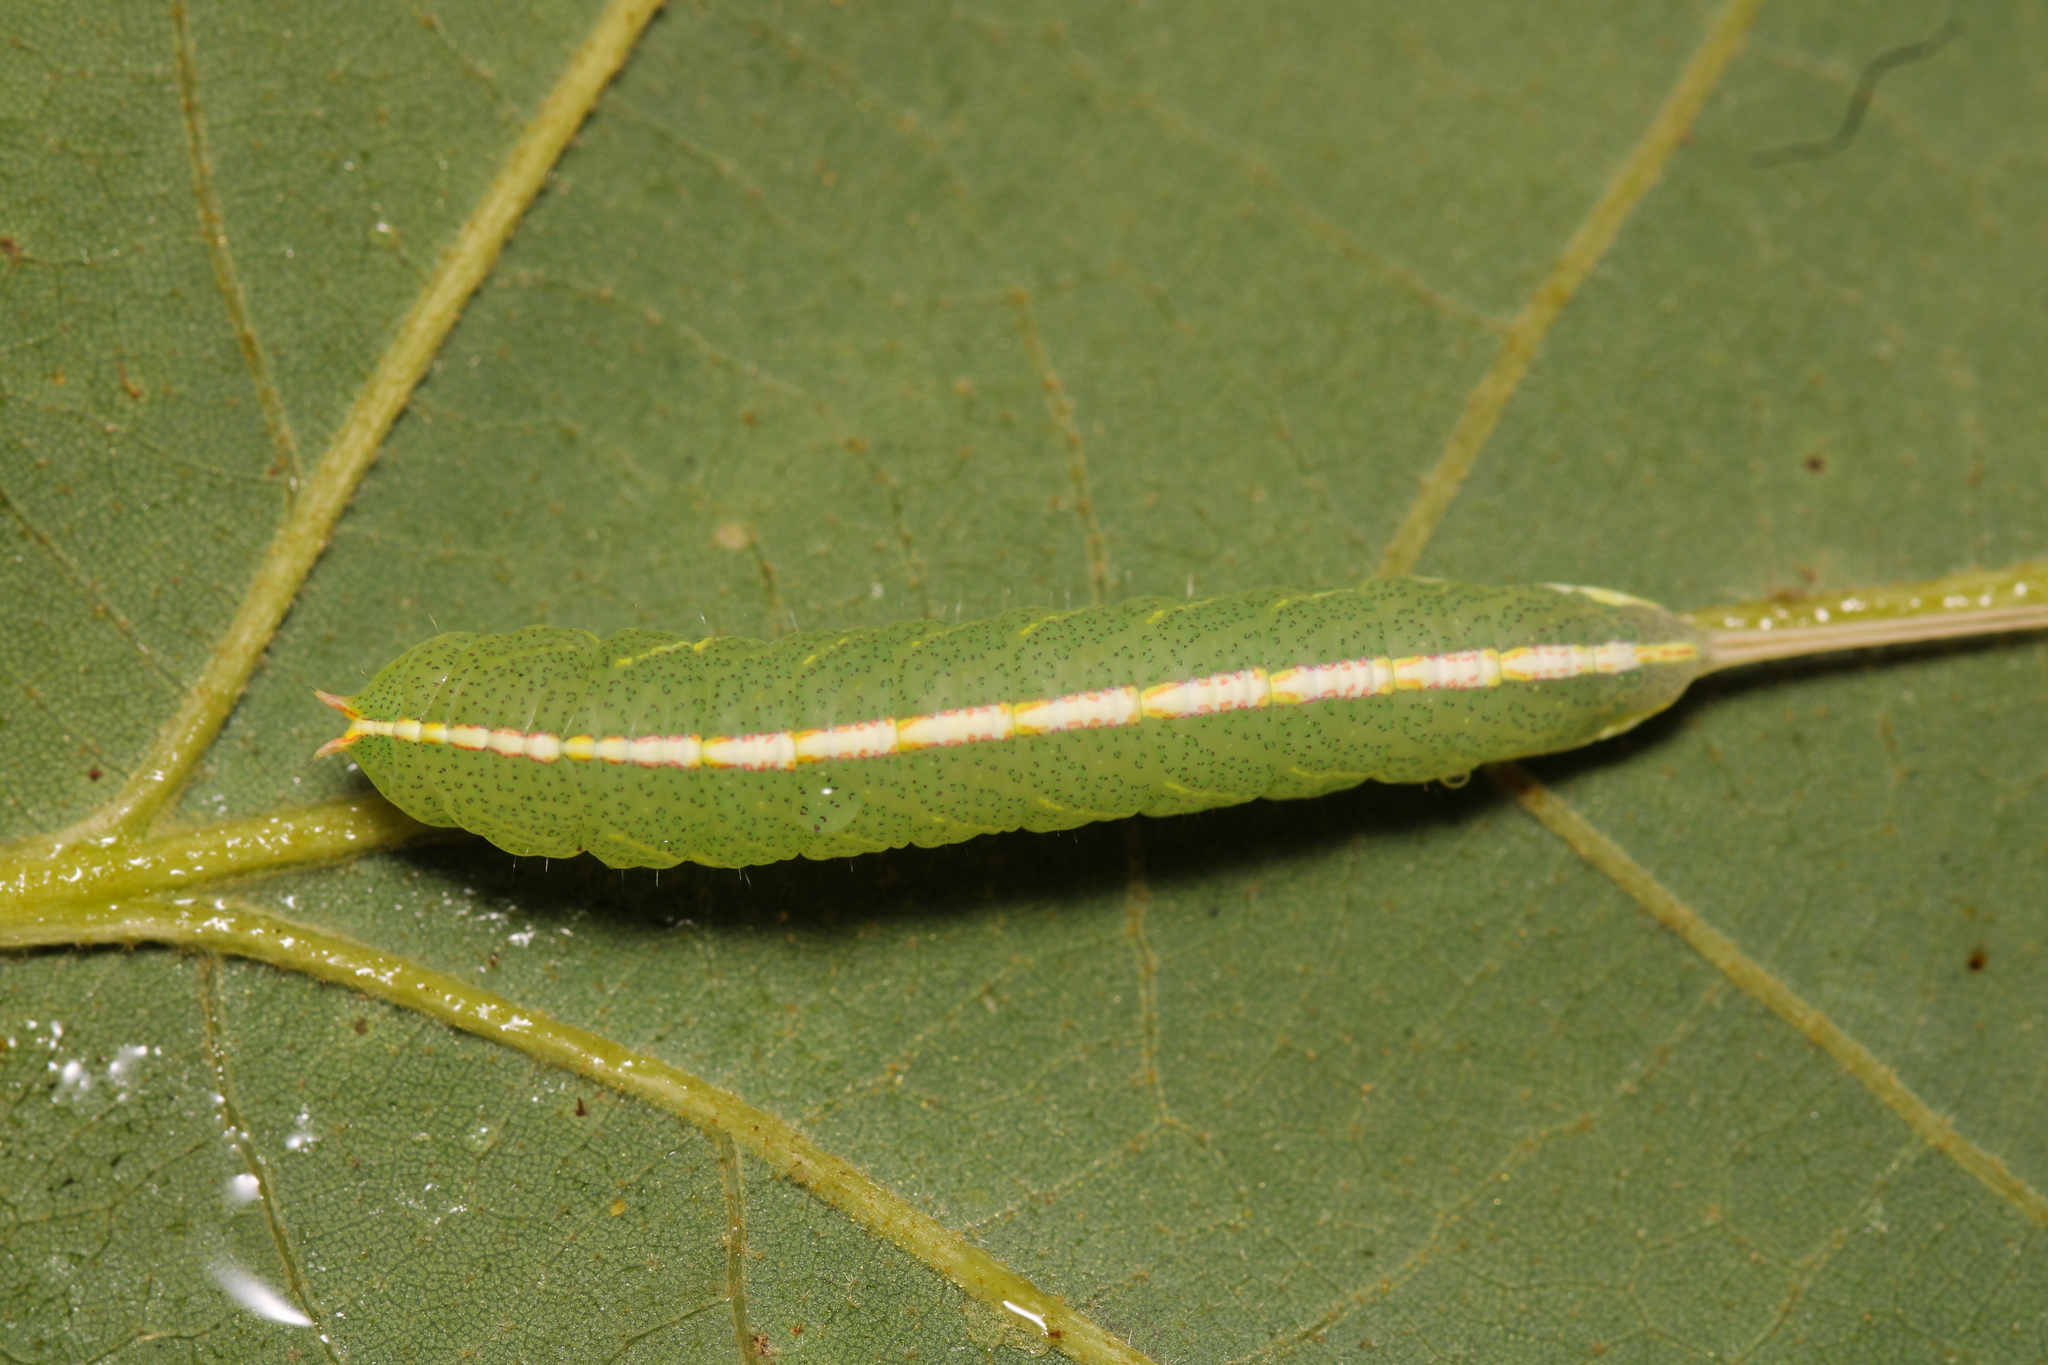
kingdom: Animalia
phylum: Arthropoda
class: Insecta
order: Lepidoptera
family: Notodontidae
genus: Macrurocampa
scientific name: Macrurocampa marthesia
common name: Mottled prominent
